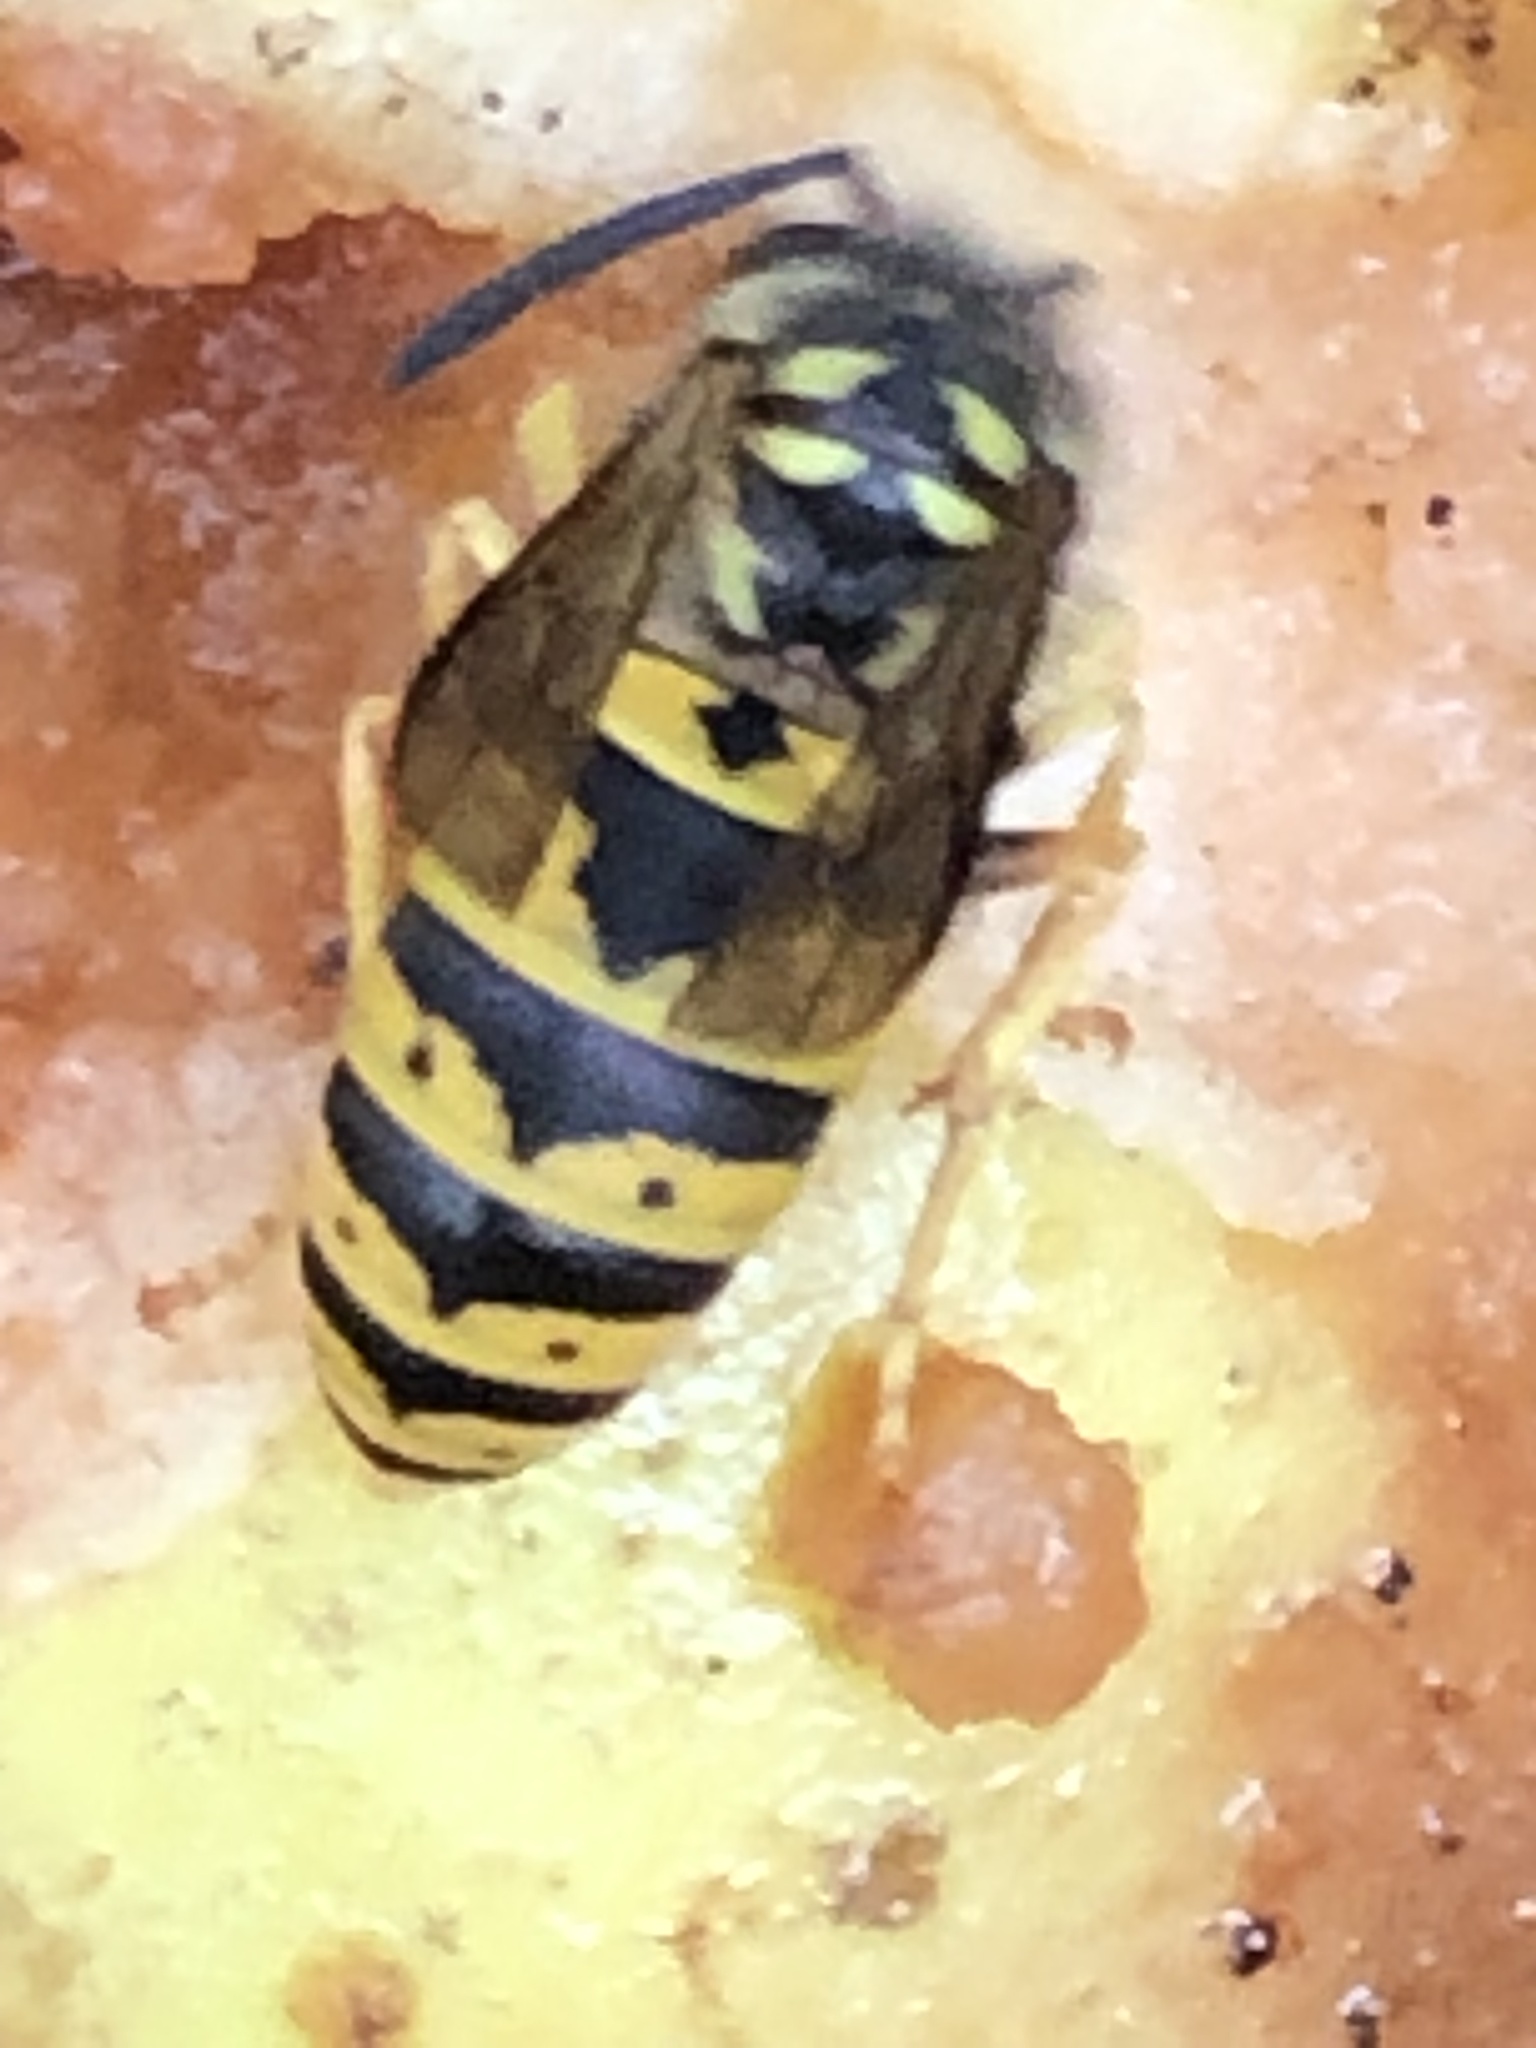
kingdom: Animalia
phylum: Arthropoda
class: Insecta
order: Hymenoptera
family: Vespidae
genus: Vespula
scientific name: Vespula germanica
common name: German wasp
